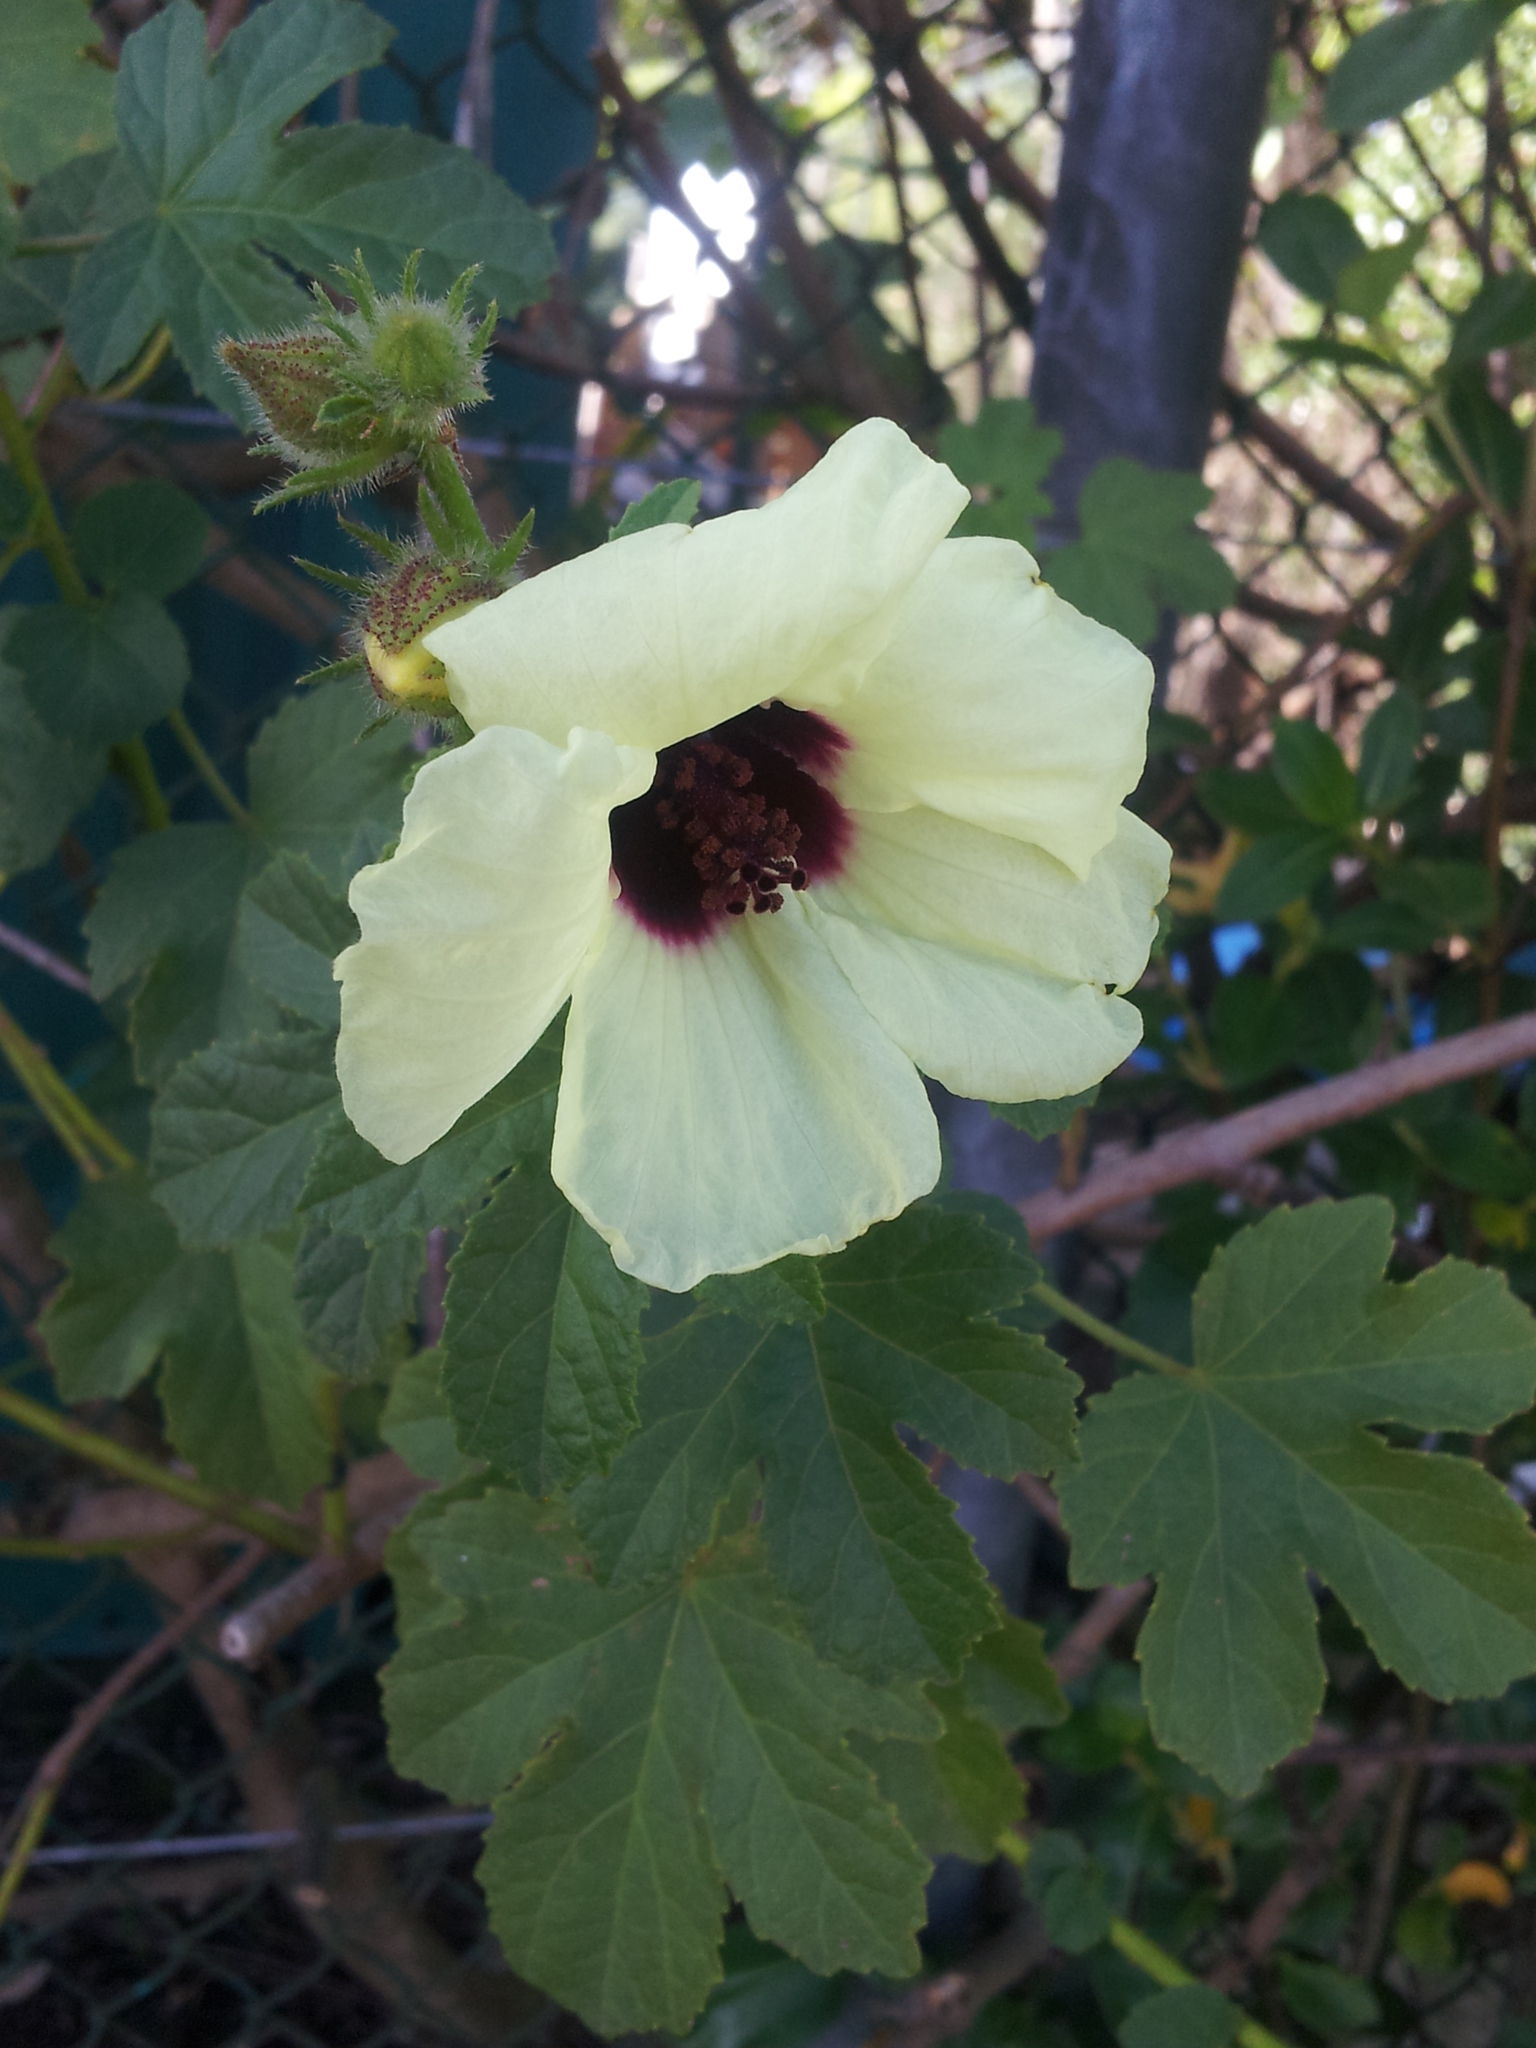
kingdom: Plantae
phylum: Tracheophyta
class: Magnoliopsida
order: Malvales
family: Malvaceae
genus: Hibiscus
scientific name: Hibiscus diversifolius
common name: Cape hibiscus
